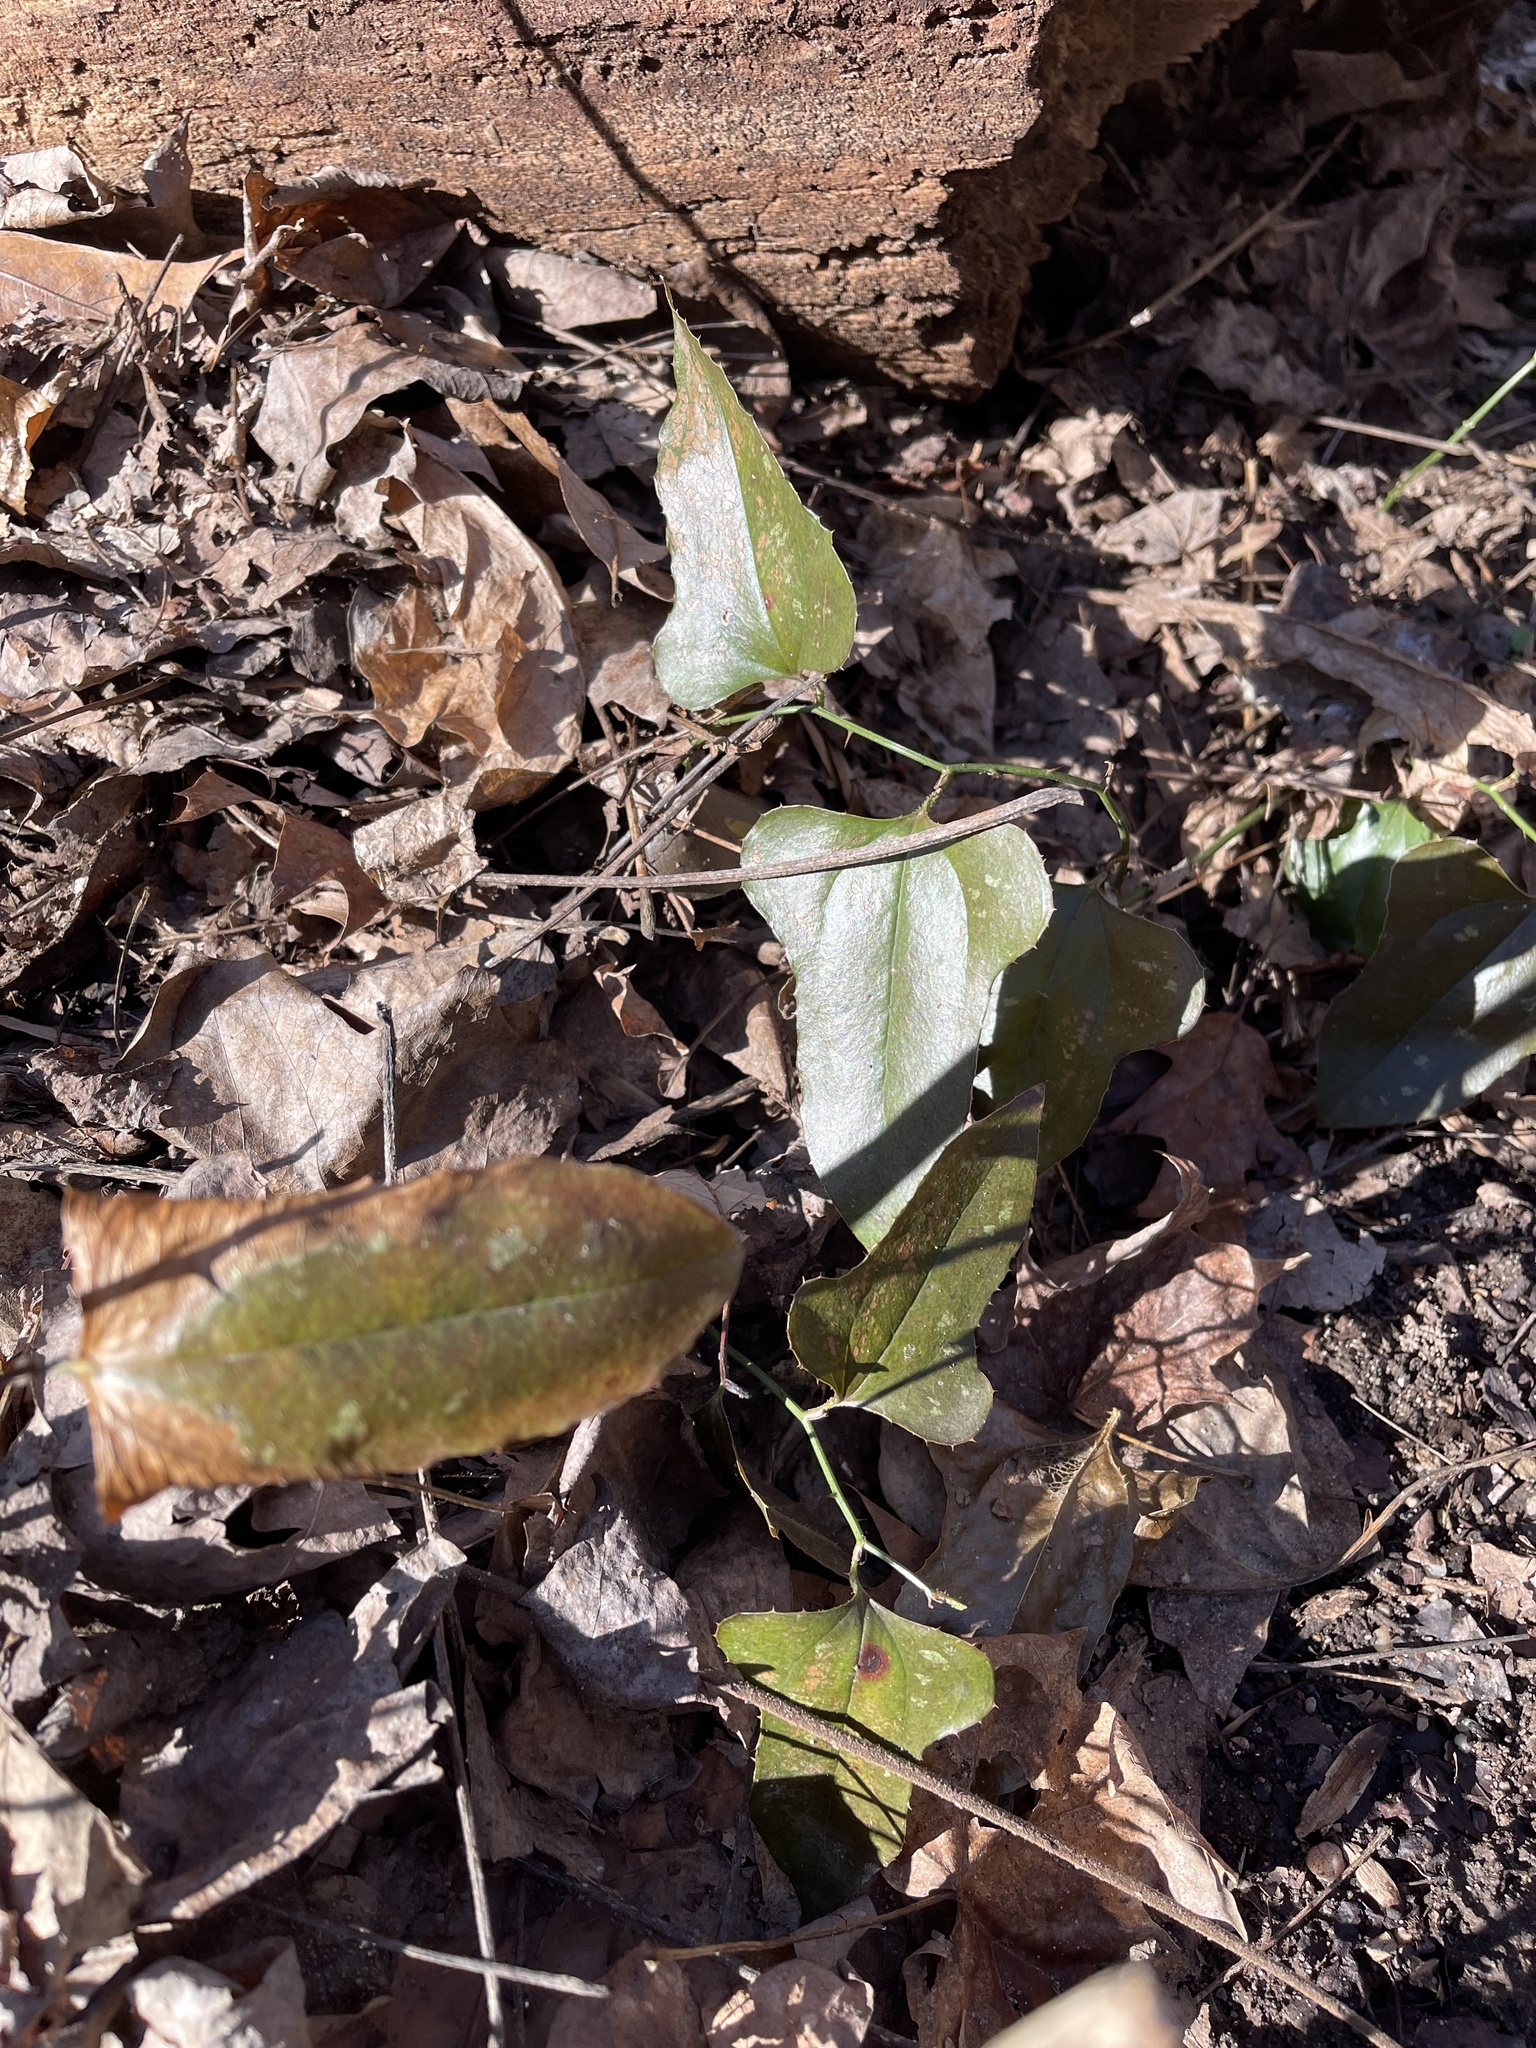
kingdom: Plantae
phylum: Tracheophyta
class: Liliopsida
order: Liliales
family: Smilacaceae
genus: Smilax
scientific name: Smilax bona-nox
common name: Catbrier
